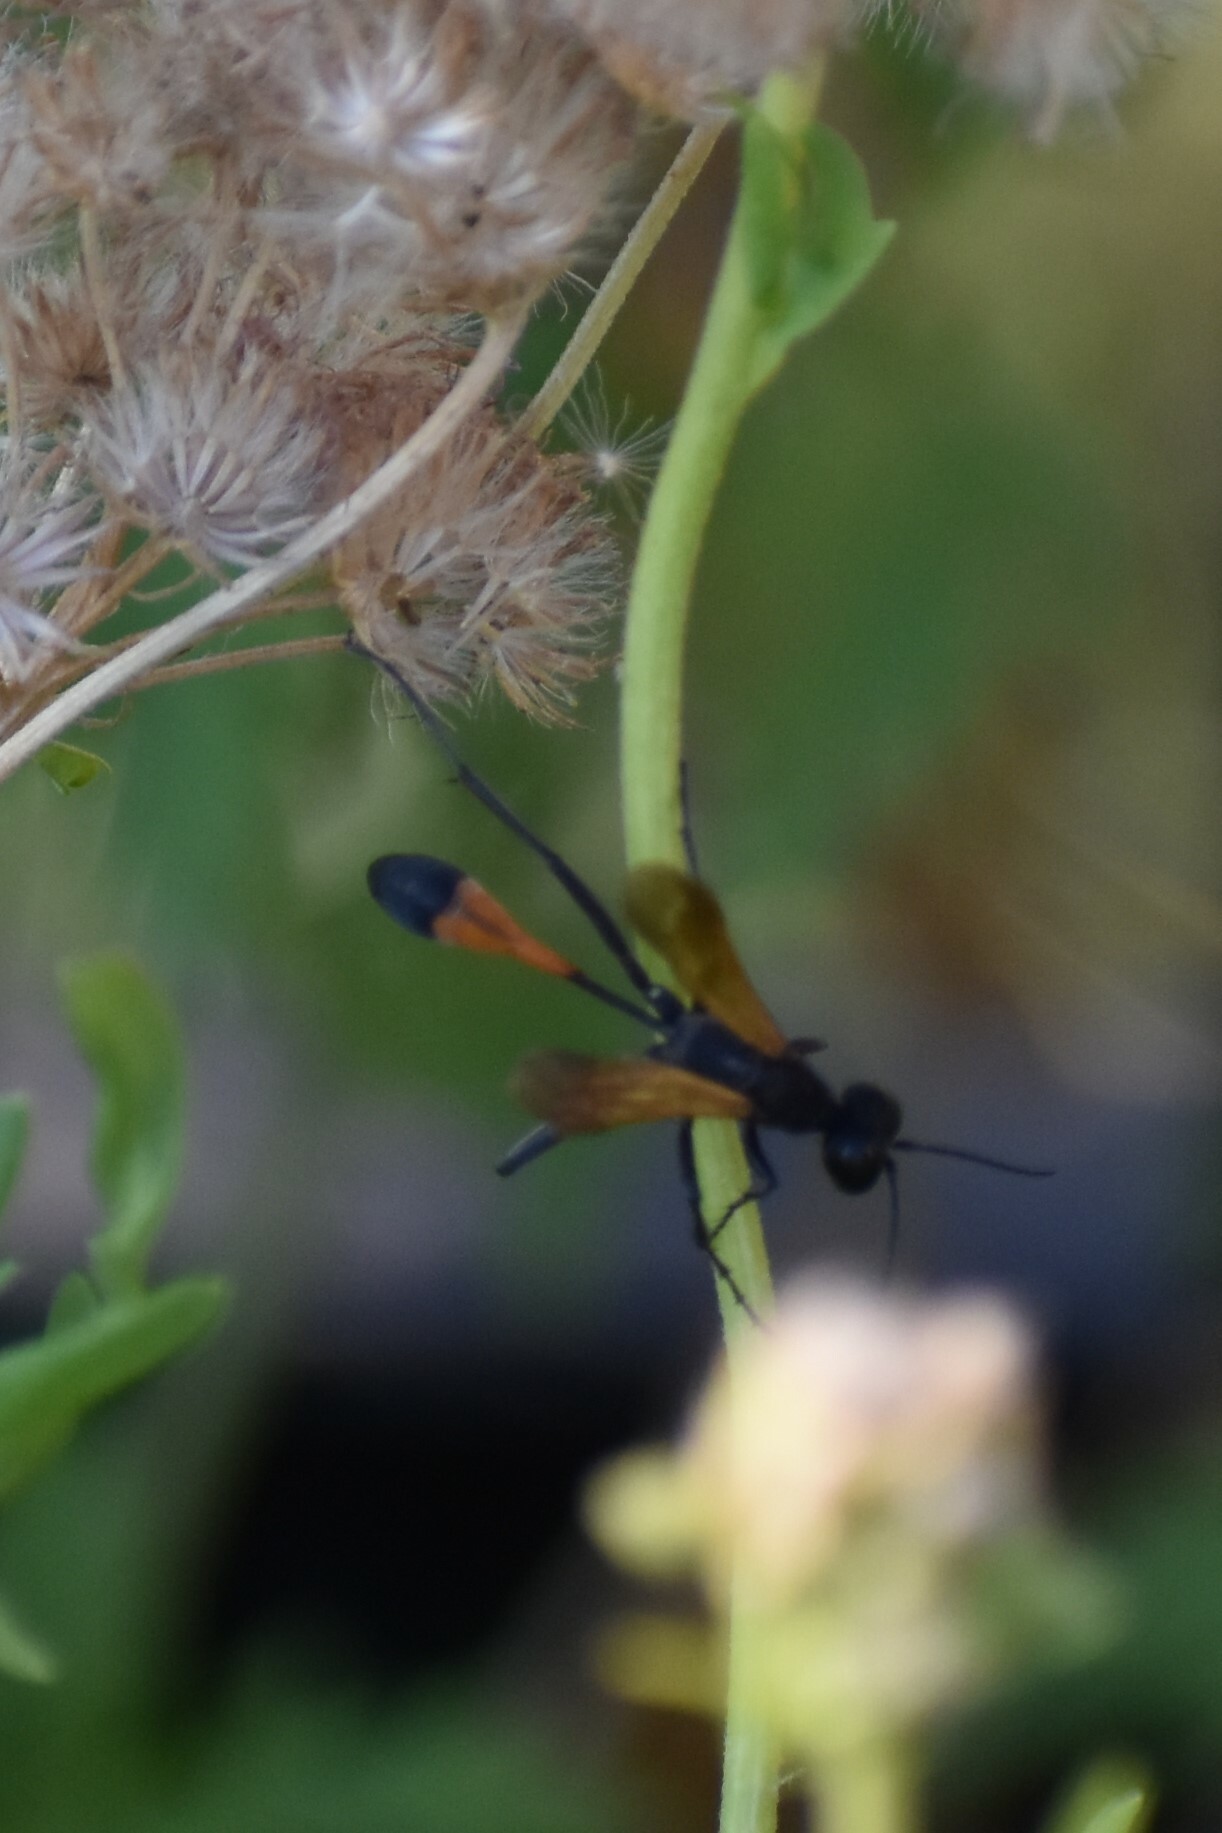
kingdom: Animalia
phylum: Arthropoda
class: Insecta
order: Hymenoptera
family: Sphecidae
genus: Ammophila
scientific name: Ammophila
